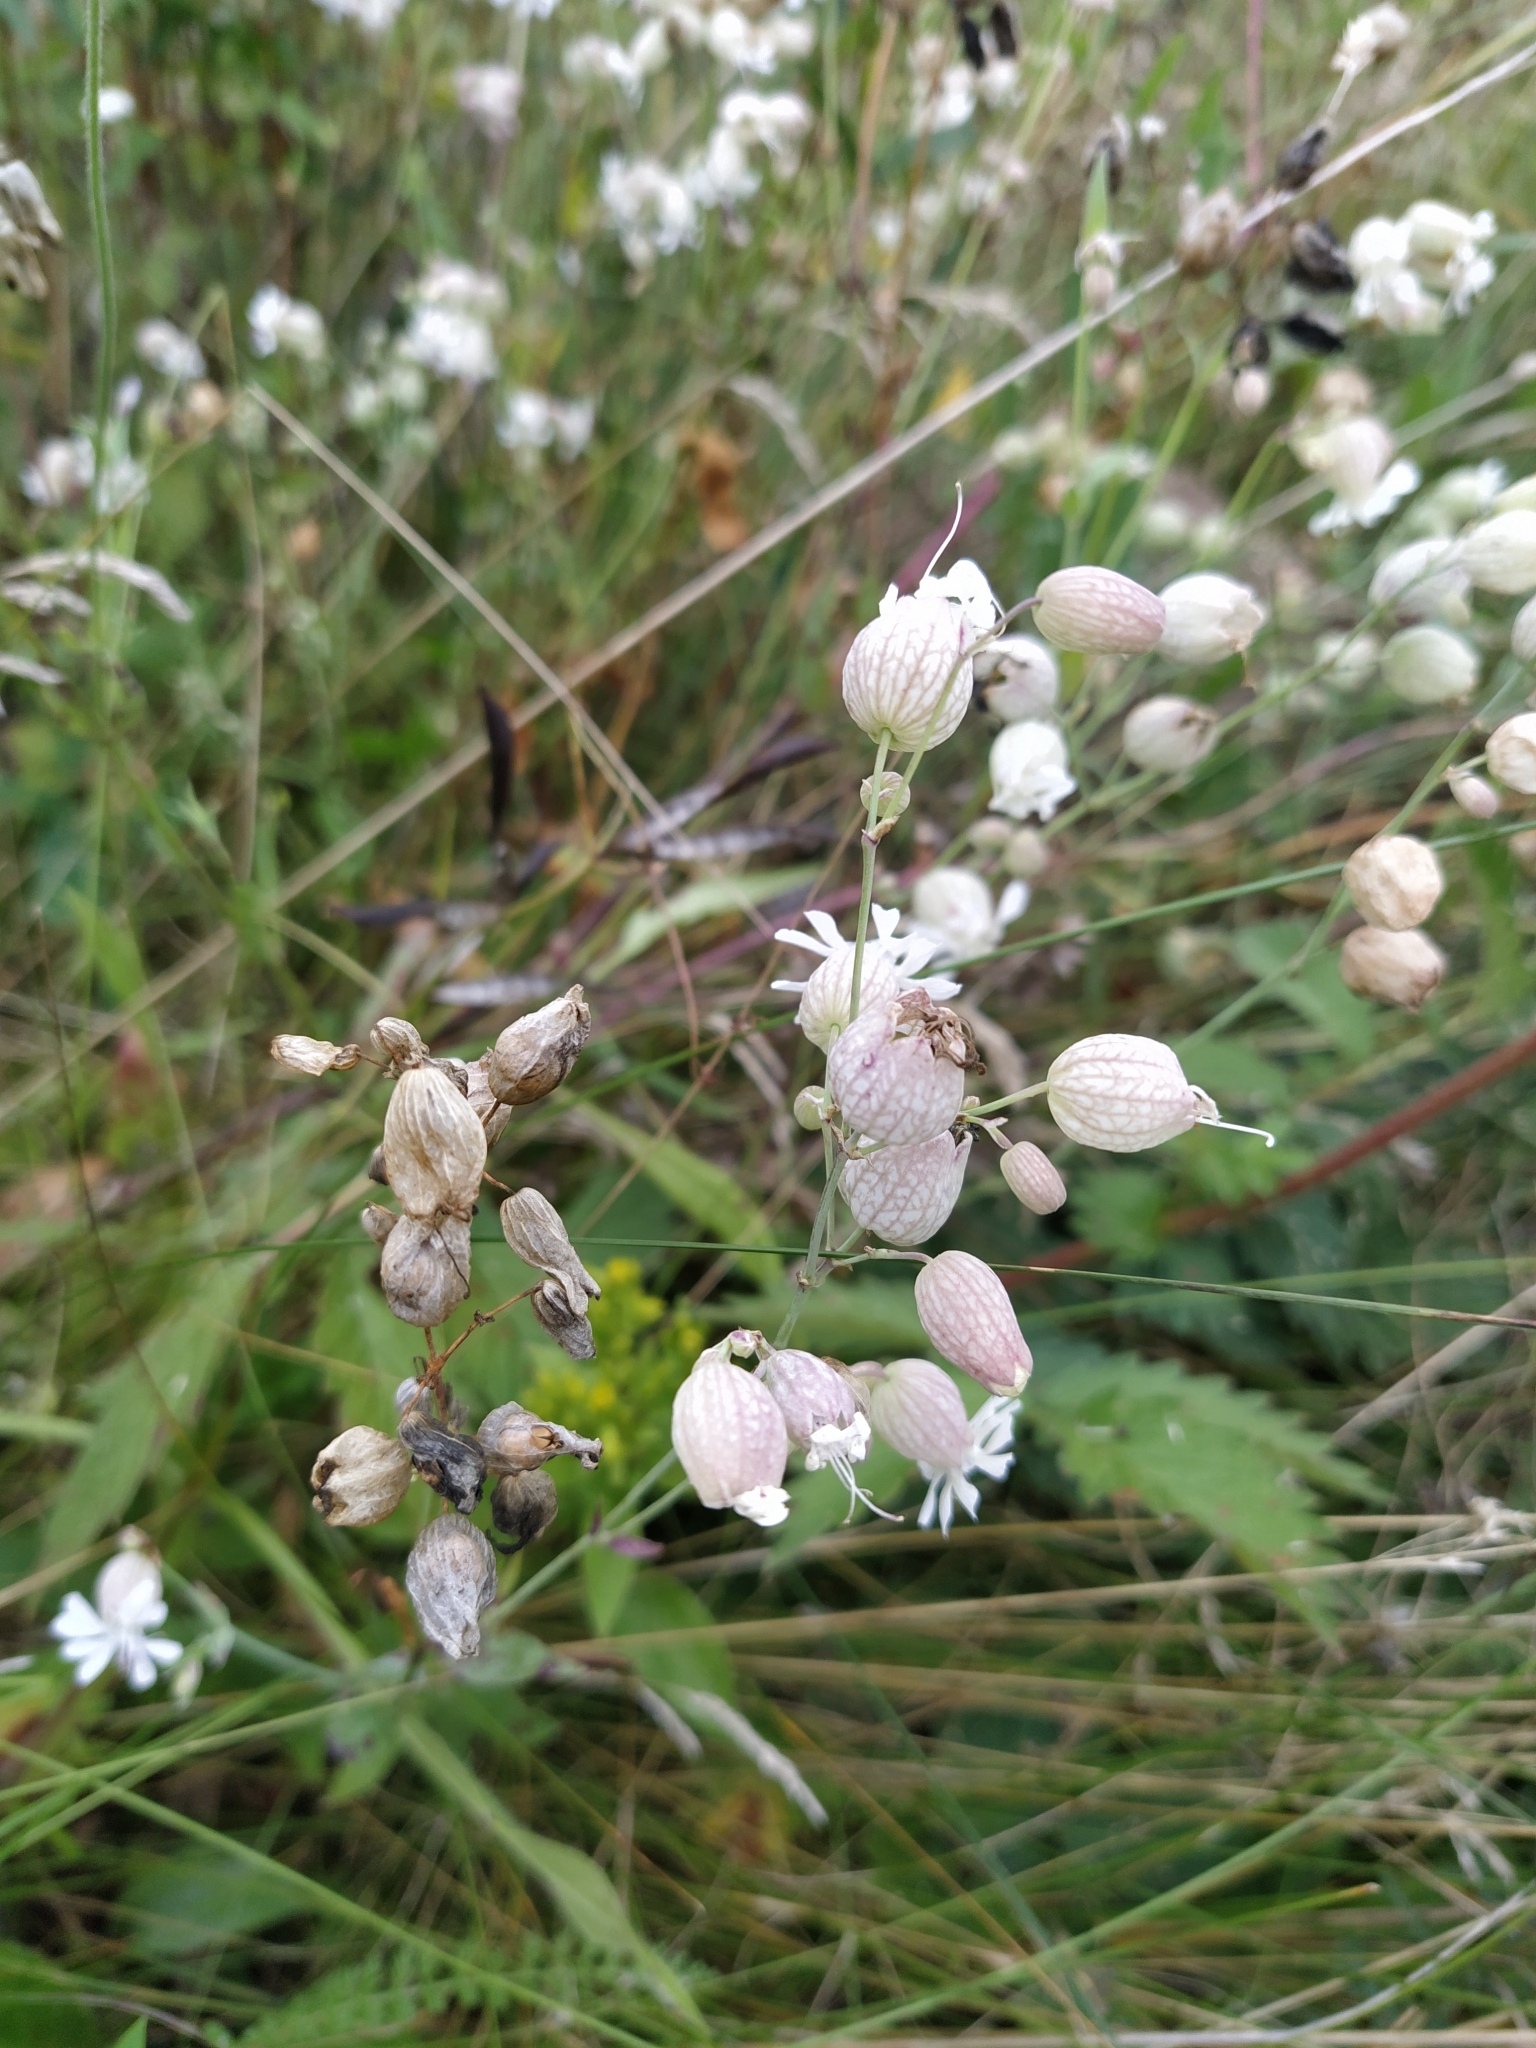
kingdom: Plantae
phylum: Tracheophyta
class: Magnoliopsida
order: Caryophyllales
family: Caryophyllaceae
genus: Silene
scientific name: Silene vulgaris
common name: Bladder campion
